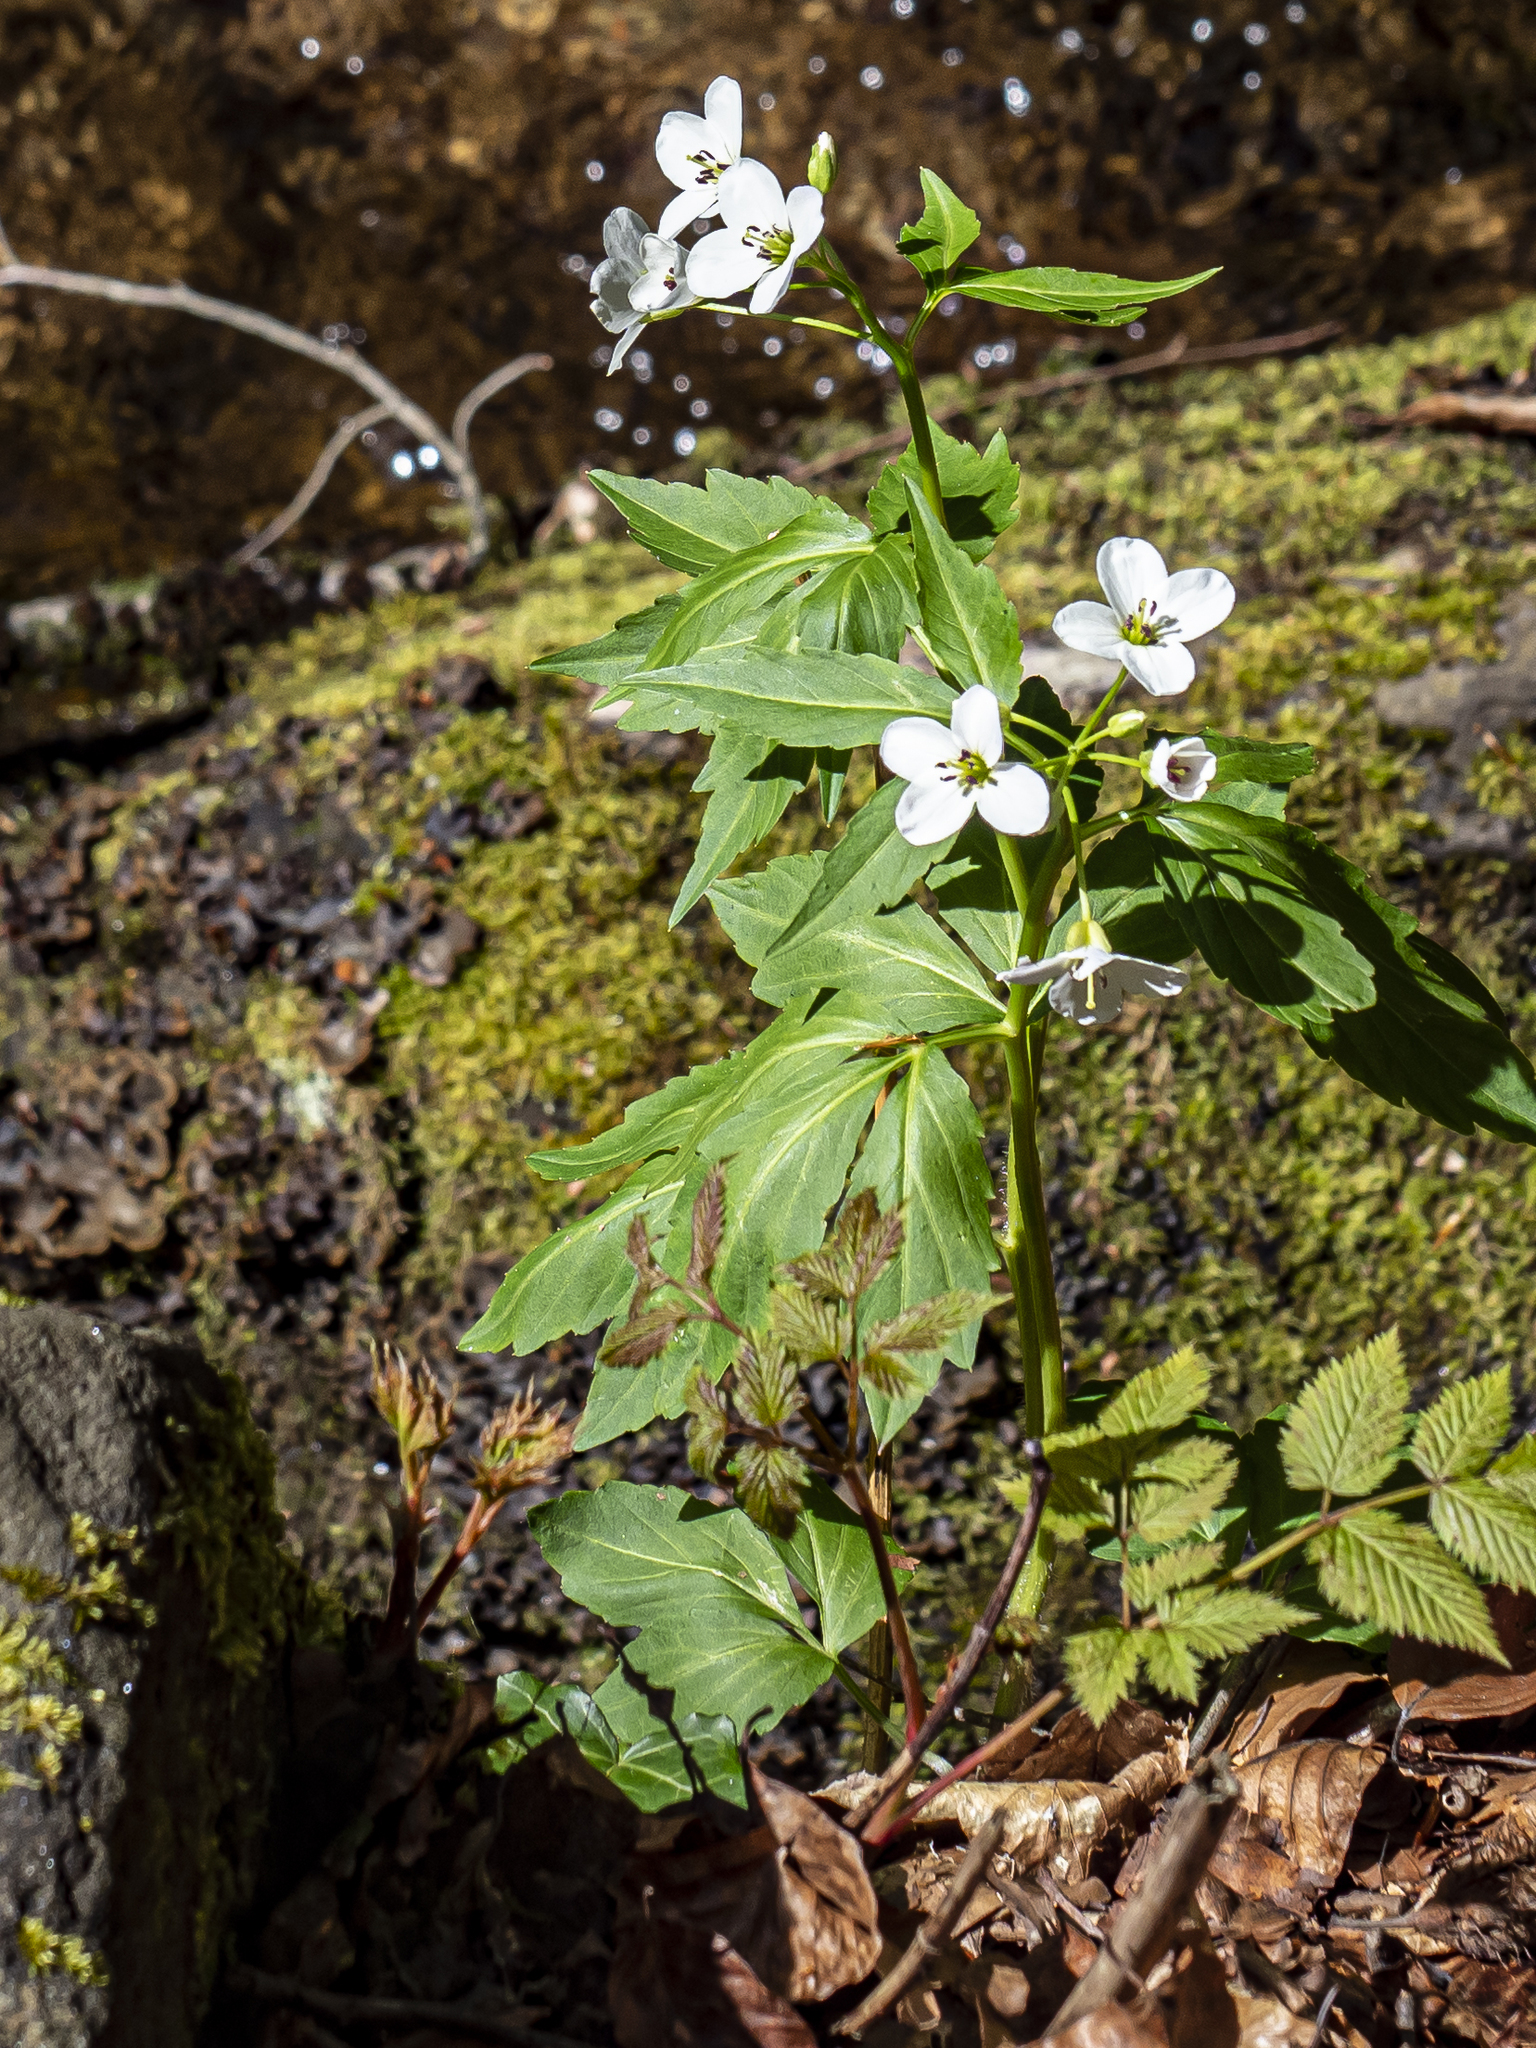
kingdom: Plantae
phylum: Tracheophyta
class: Magnoliopsida
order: Brassicales
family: Brassicaceae
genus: Cardamine
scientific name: Cardamine waldsteinii
